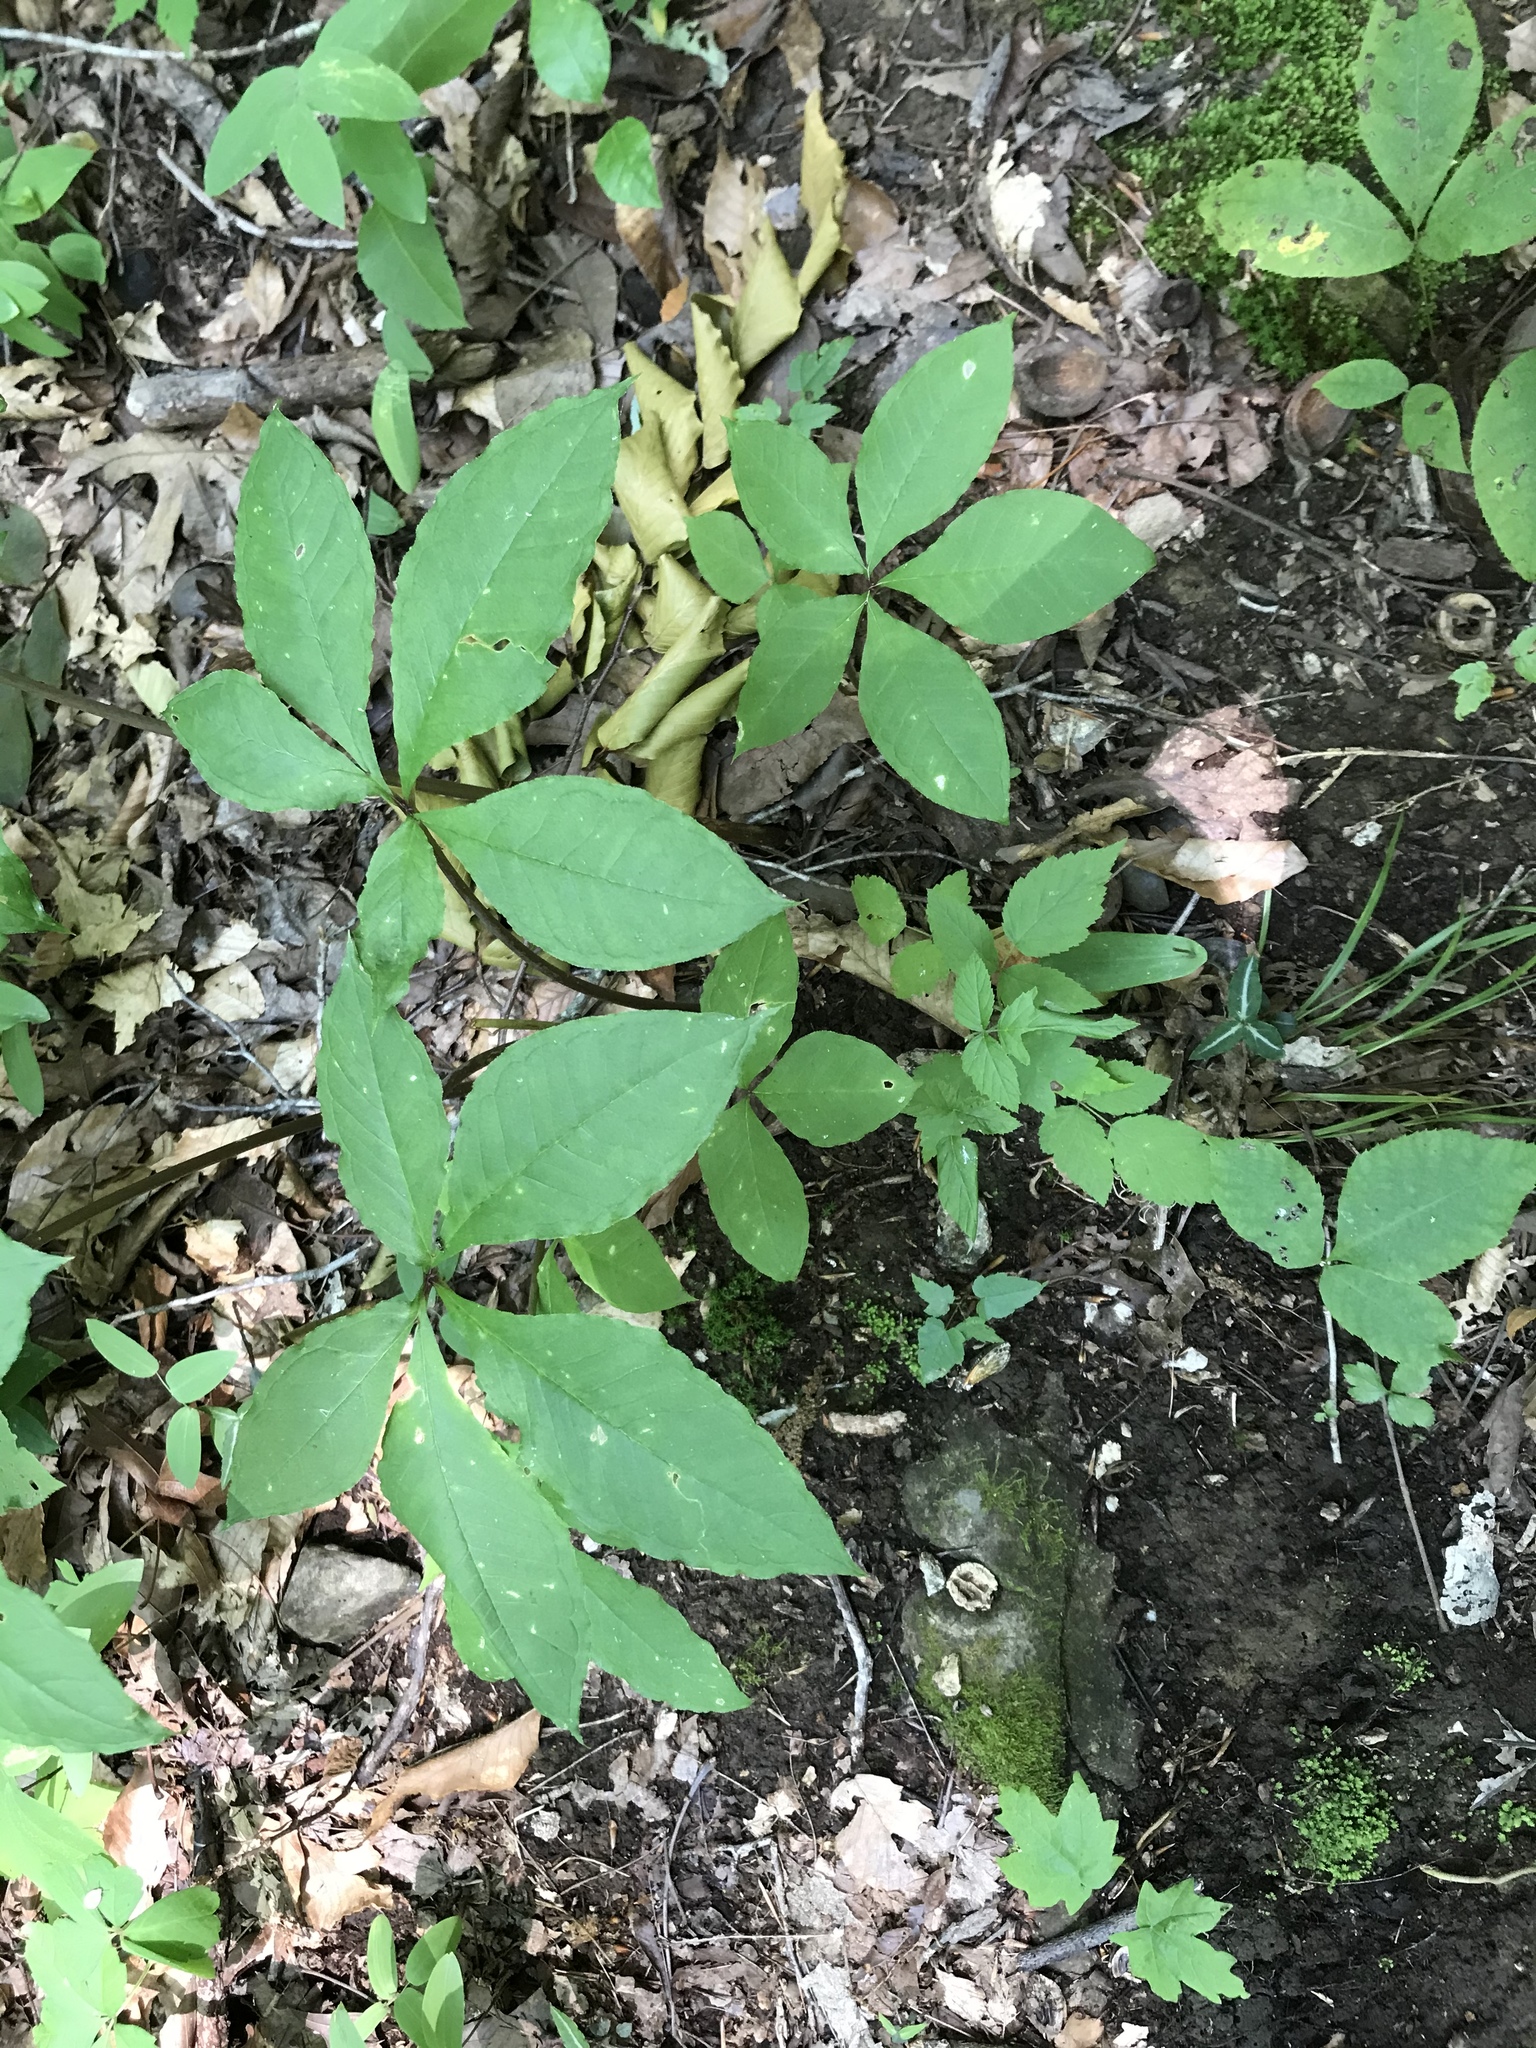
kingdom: Plantae
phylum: Tracheophyta
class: Liliopsida
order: Alismatales
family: Araceae
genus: Arisaema
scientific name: Arisaema quinatum
